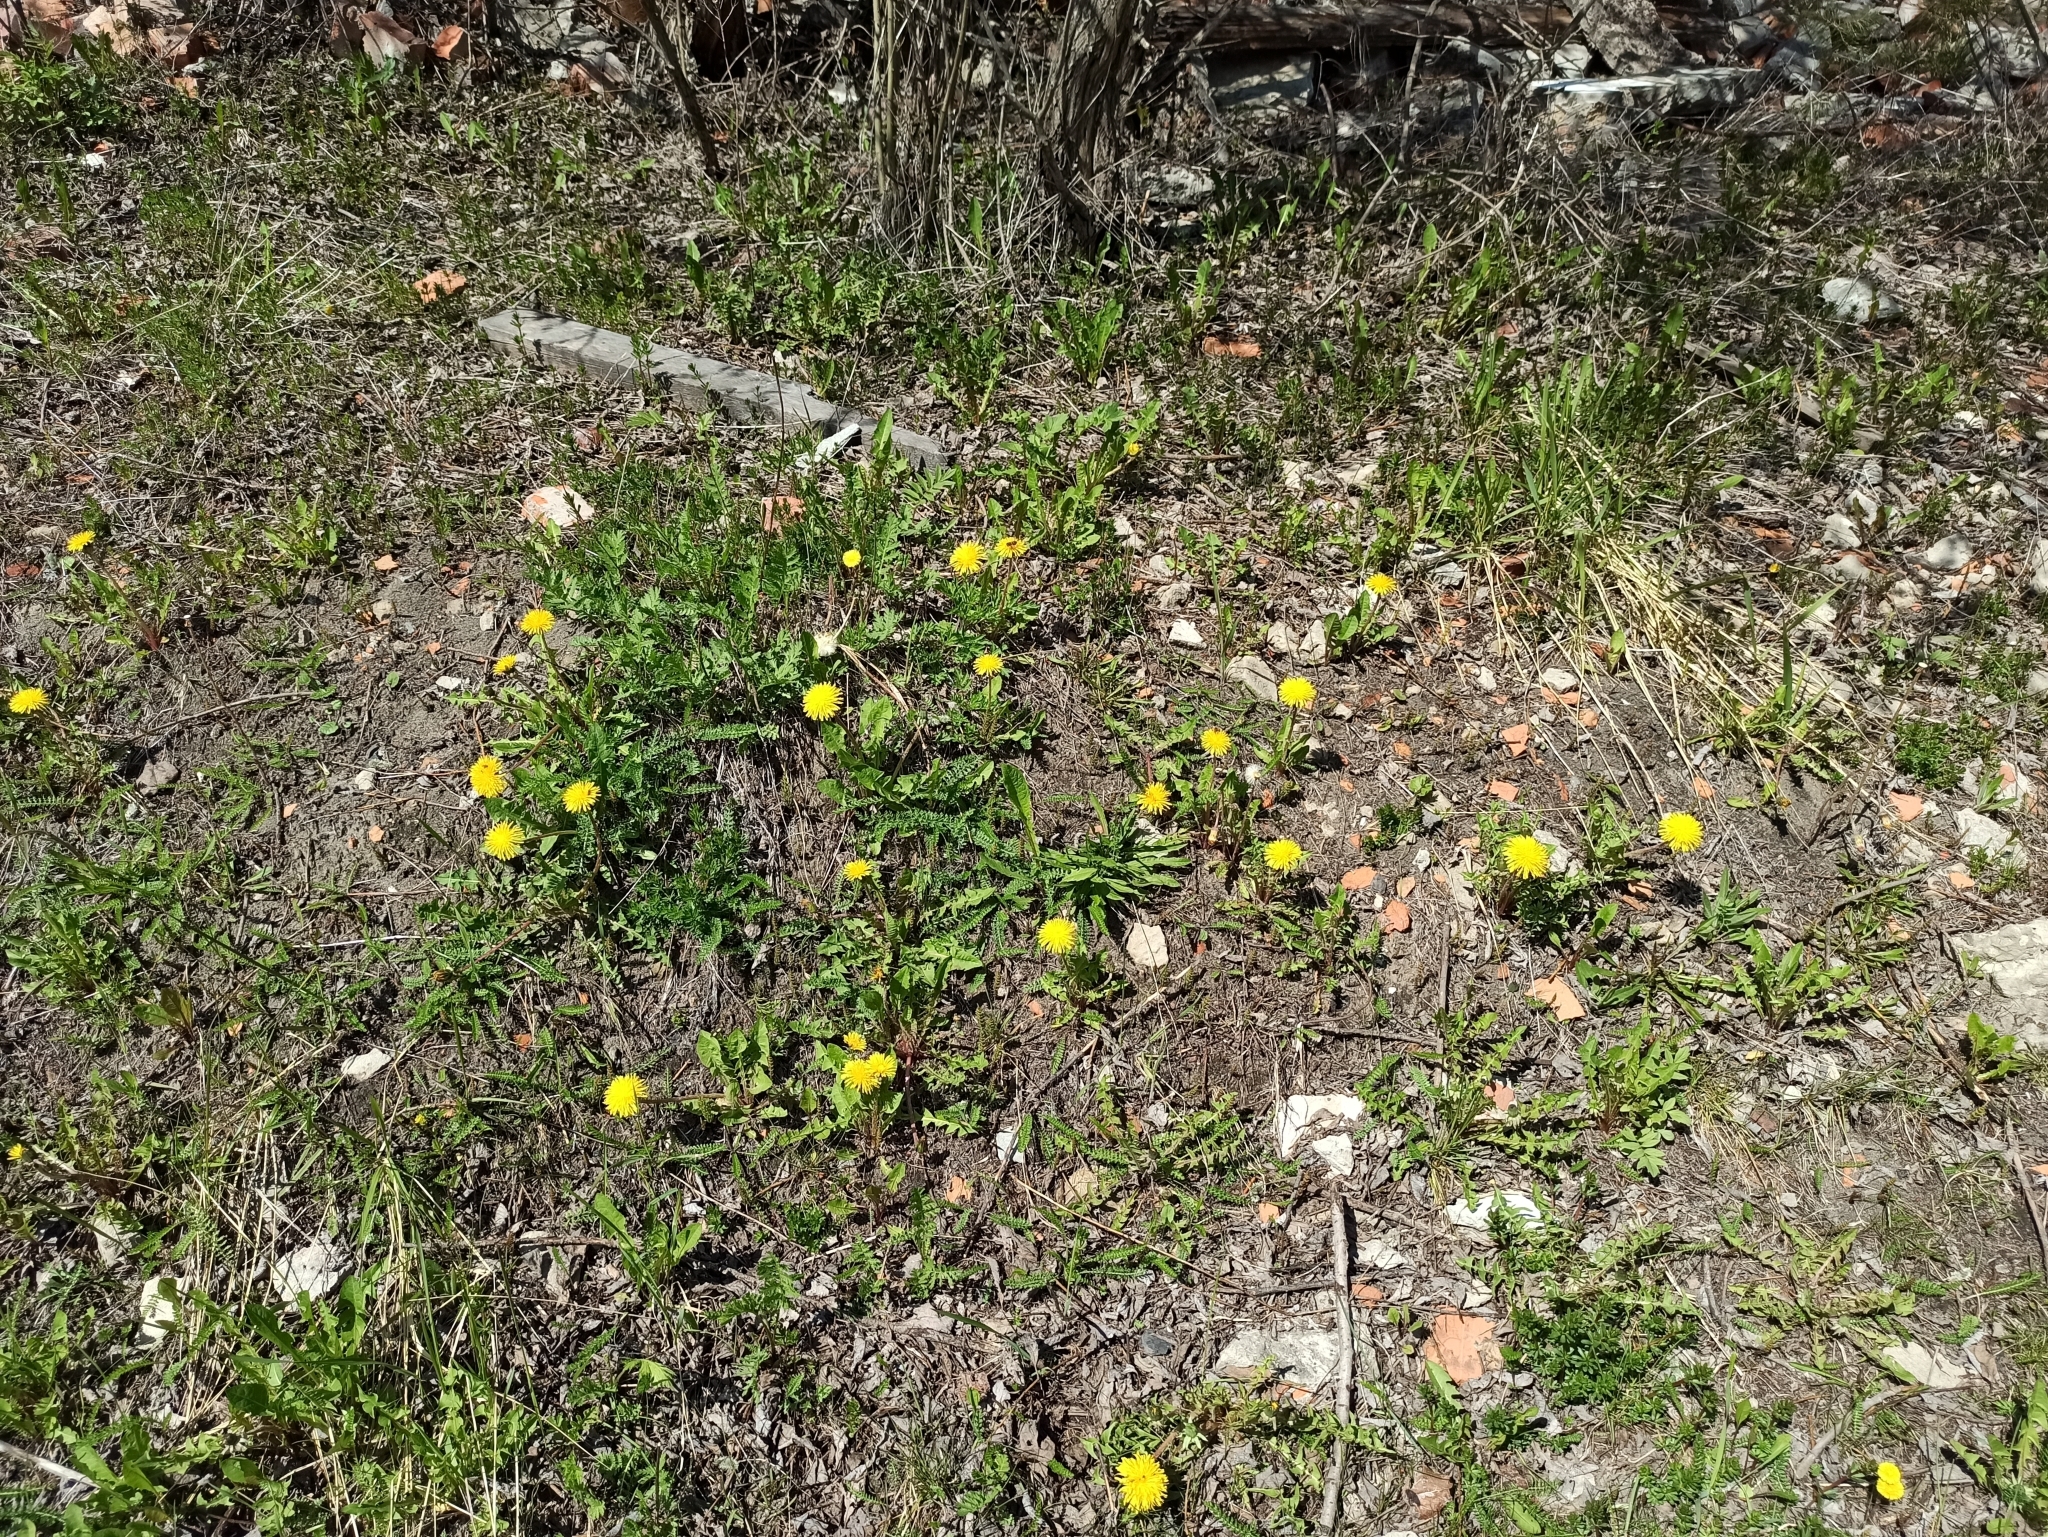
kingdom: Plantae
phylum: Tracheophyta
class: Magnoliopsida
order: Asterales
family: Asteraceae
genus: Taraxacum
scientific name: Taraxacum officinale
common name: Common dandelion
